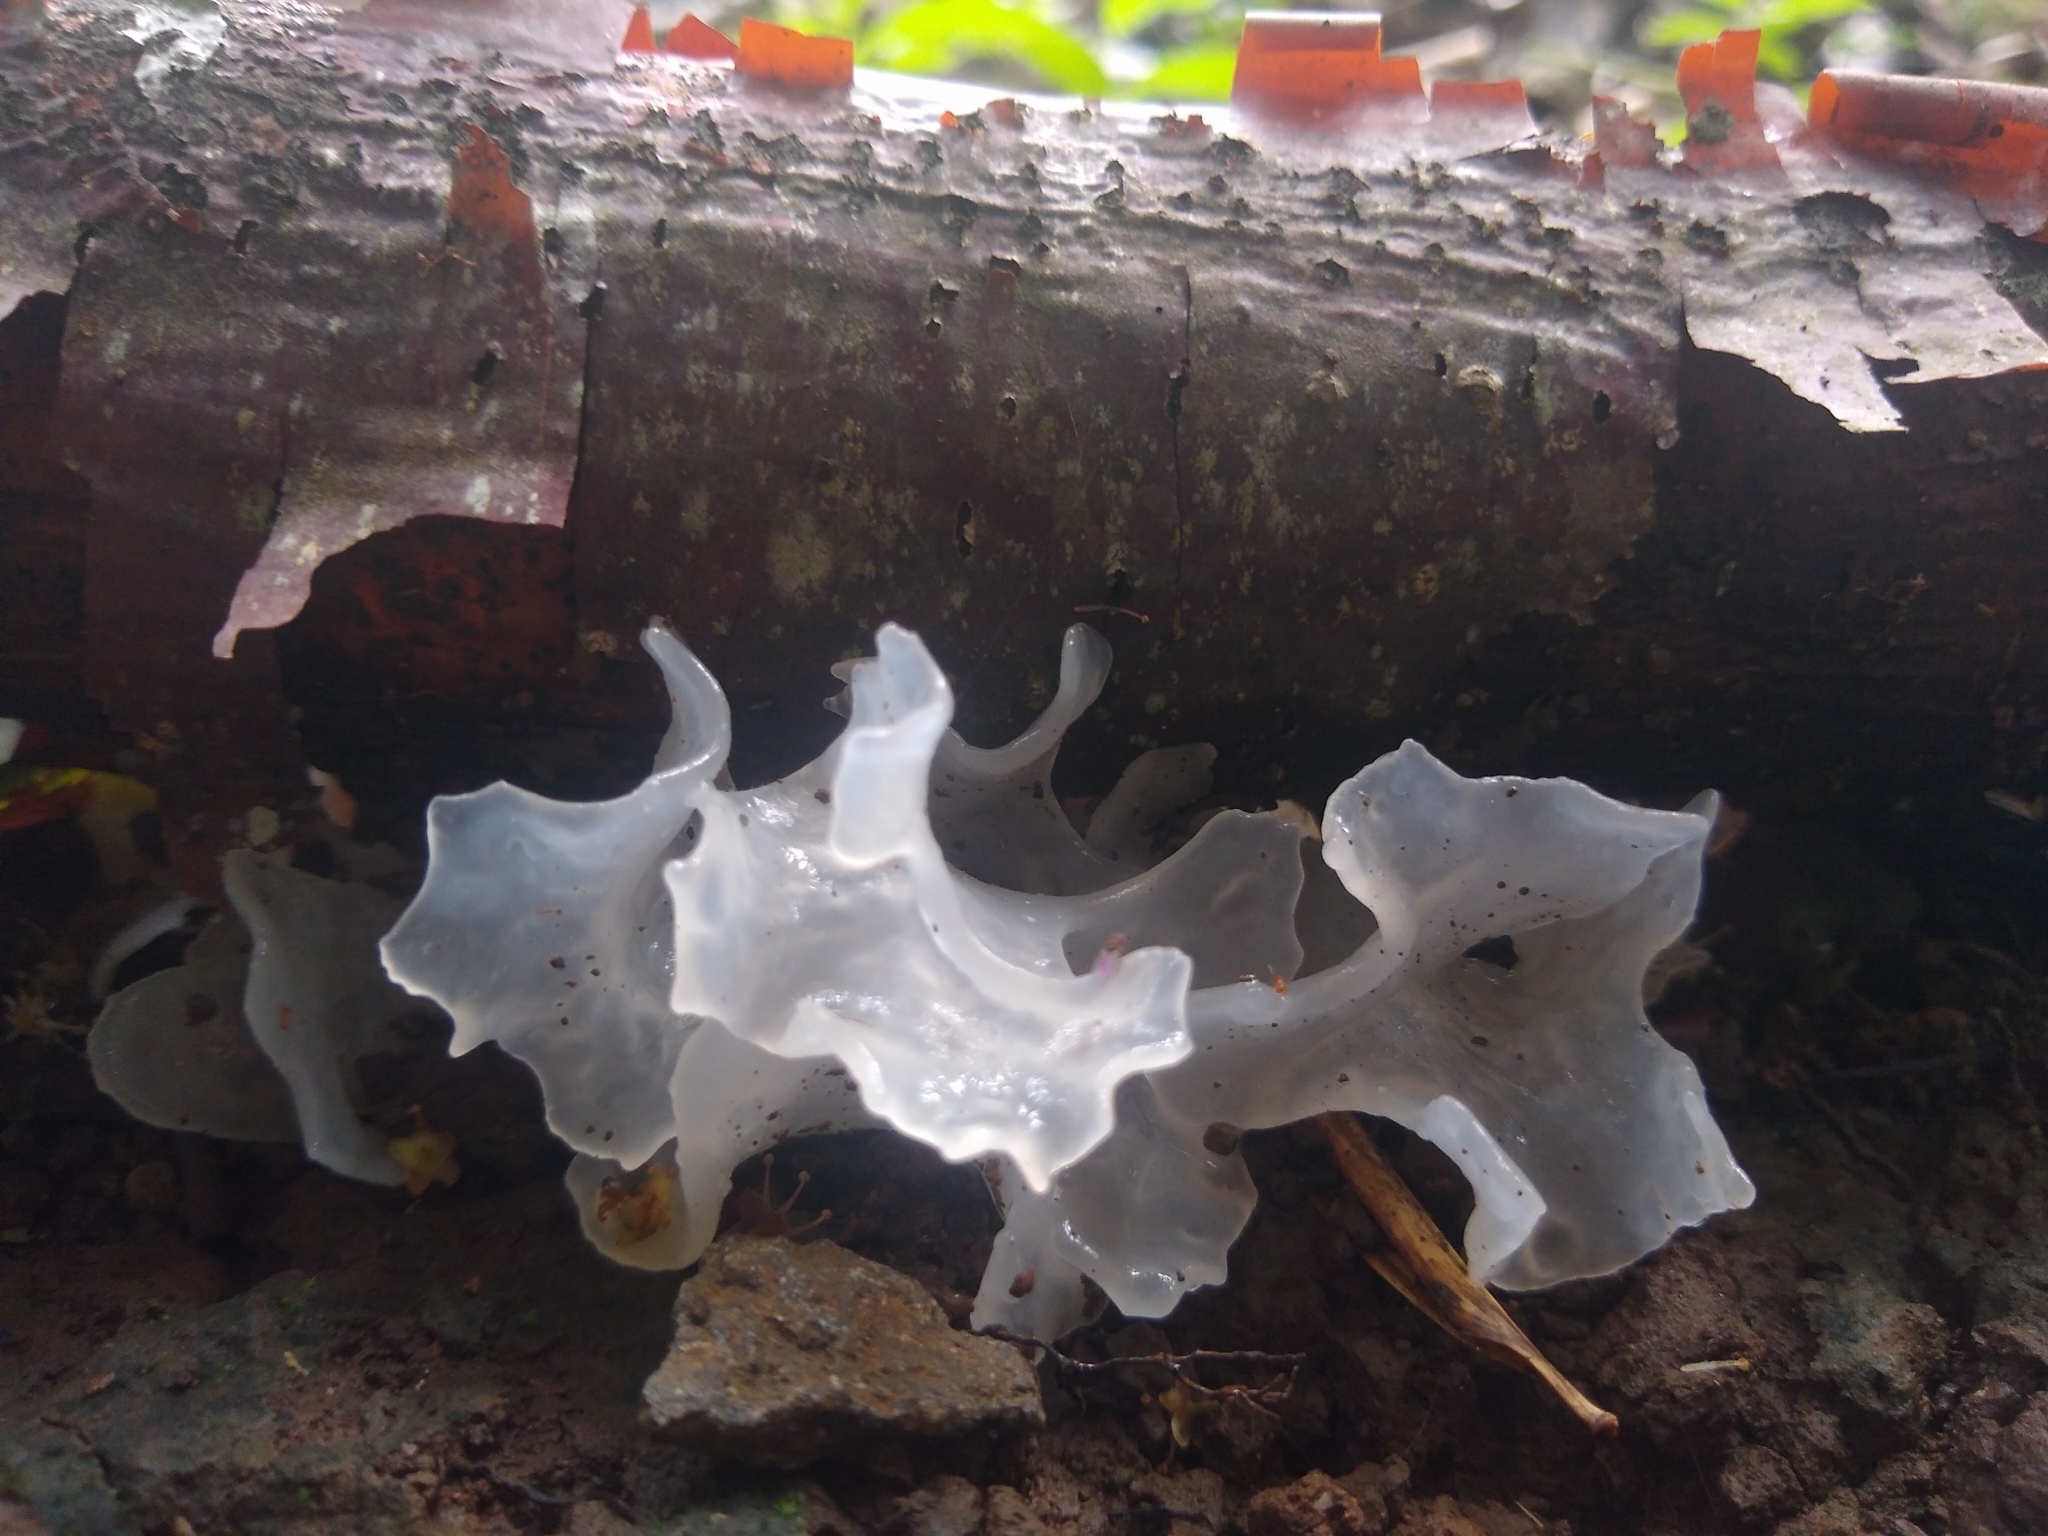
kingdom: Fungi
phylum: Basidiomycota
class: Tremellomycetes
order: Tremellales
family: Tremellaceae
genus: Tremella
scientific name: Tremella fuciformis
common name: Snow fungus
